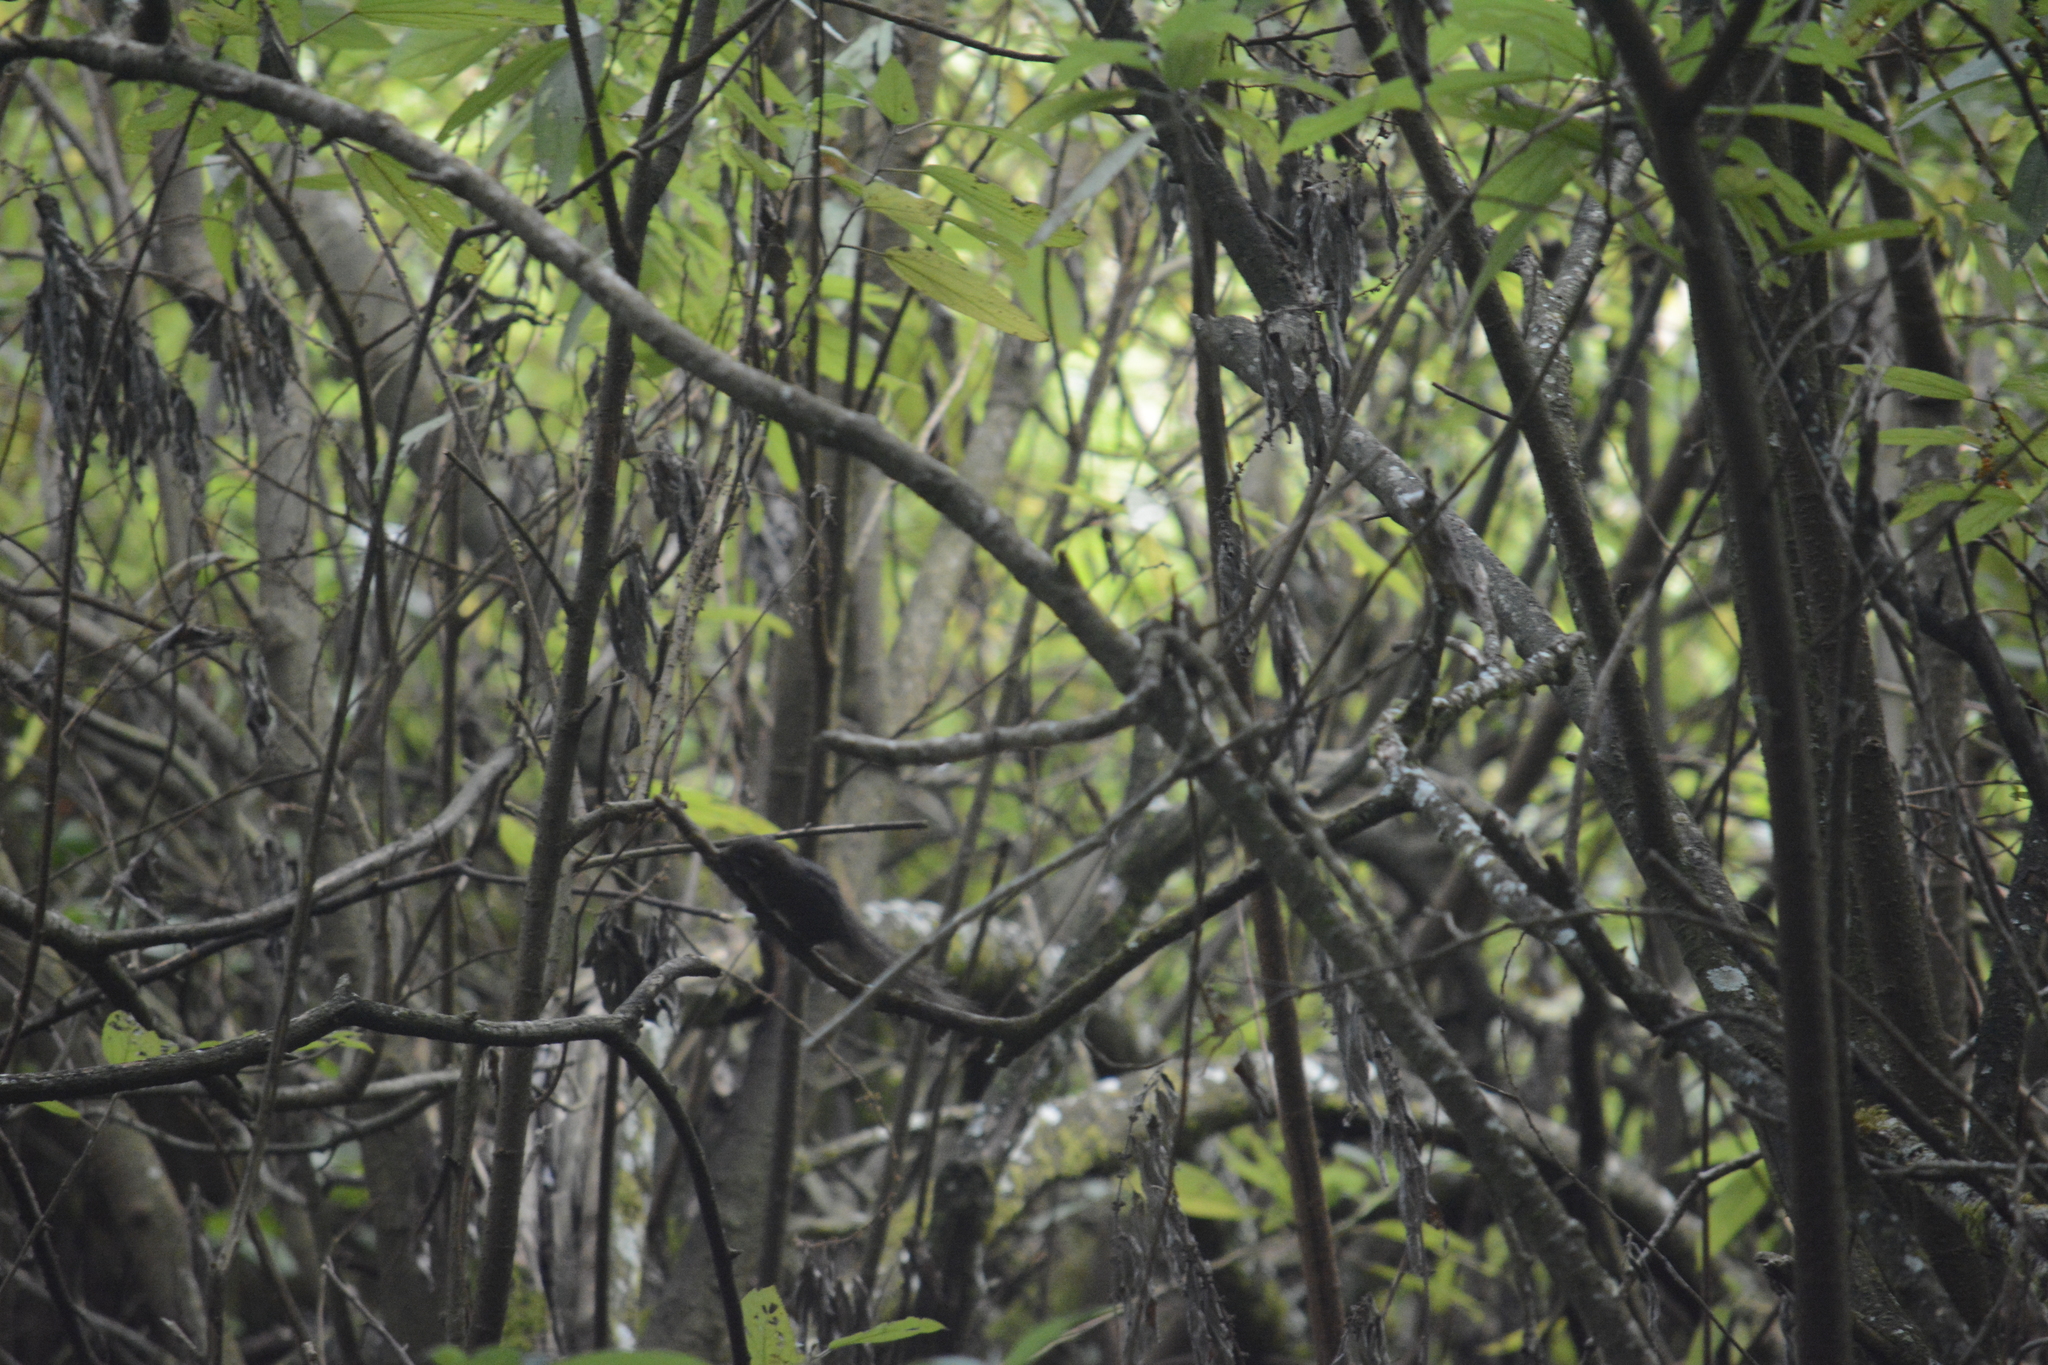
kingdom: Animalia
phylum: Chordata
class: Mammalia
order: Rodentia
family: Sciuridae
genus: Funambulus
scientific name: Funambulus sublineatus
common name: Dusky palm squirrel
